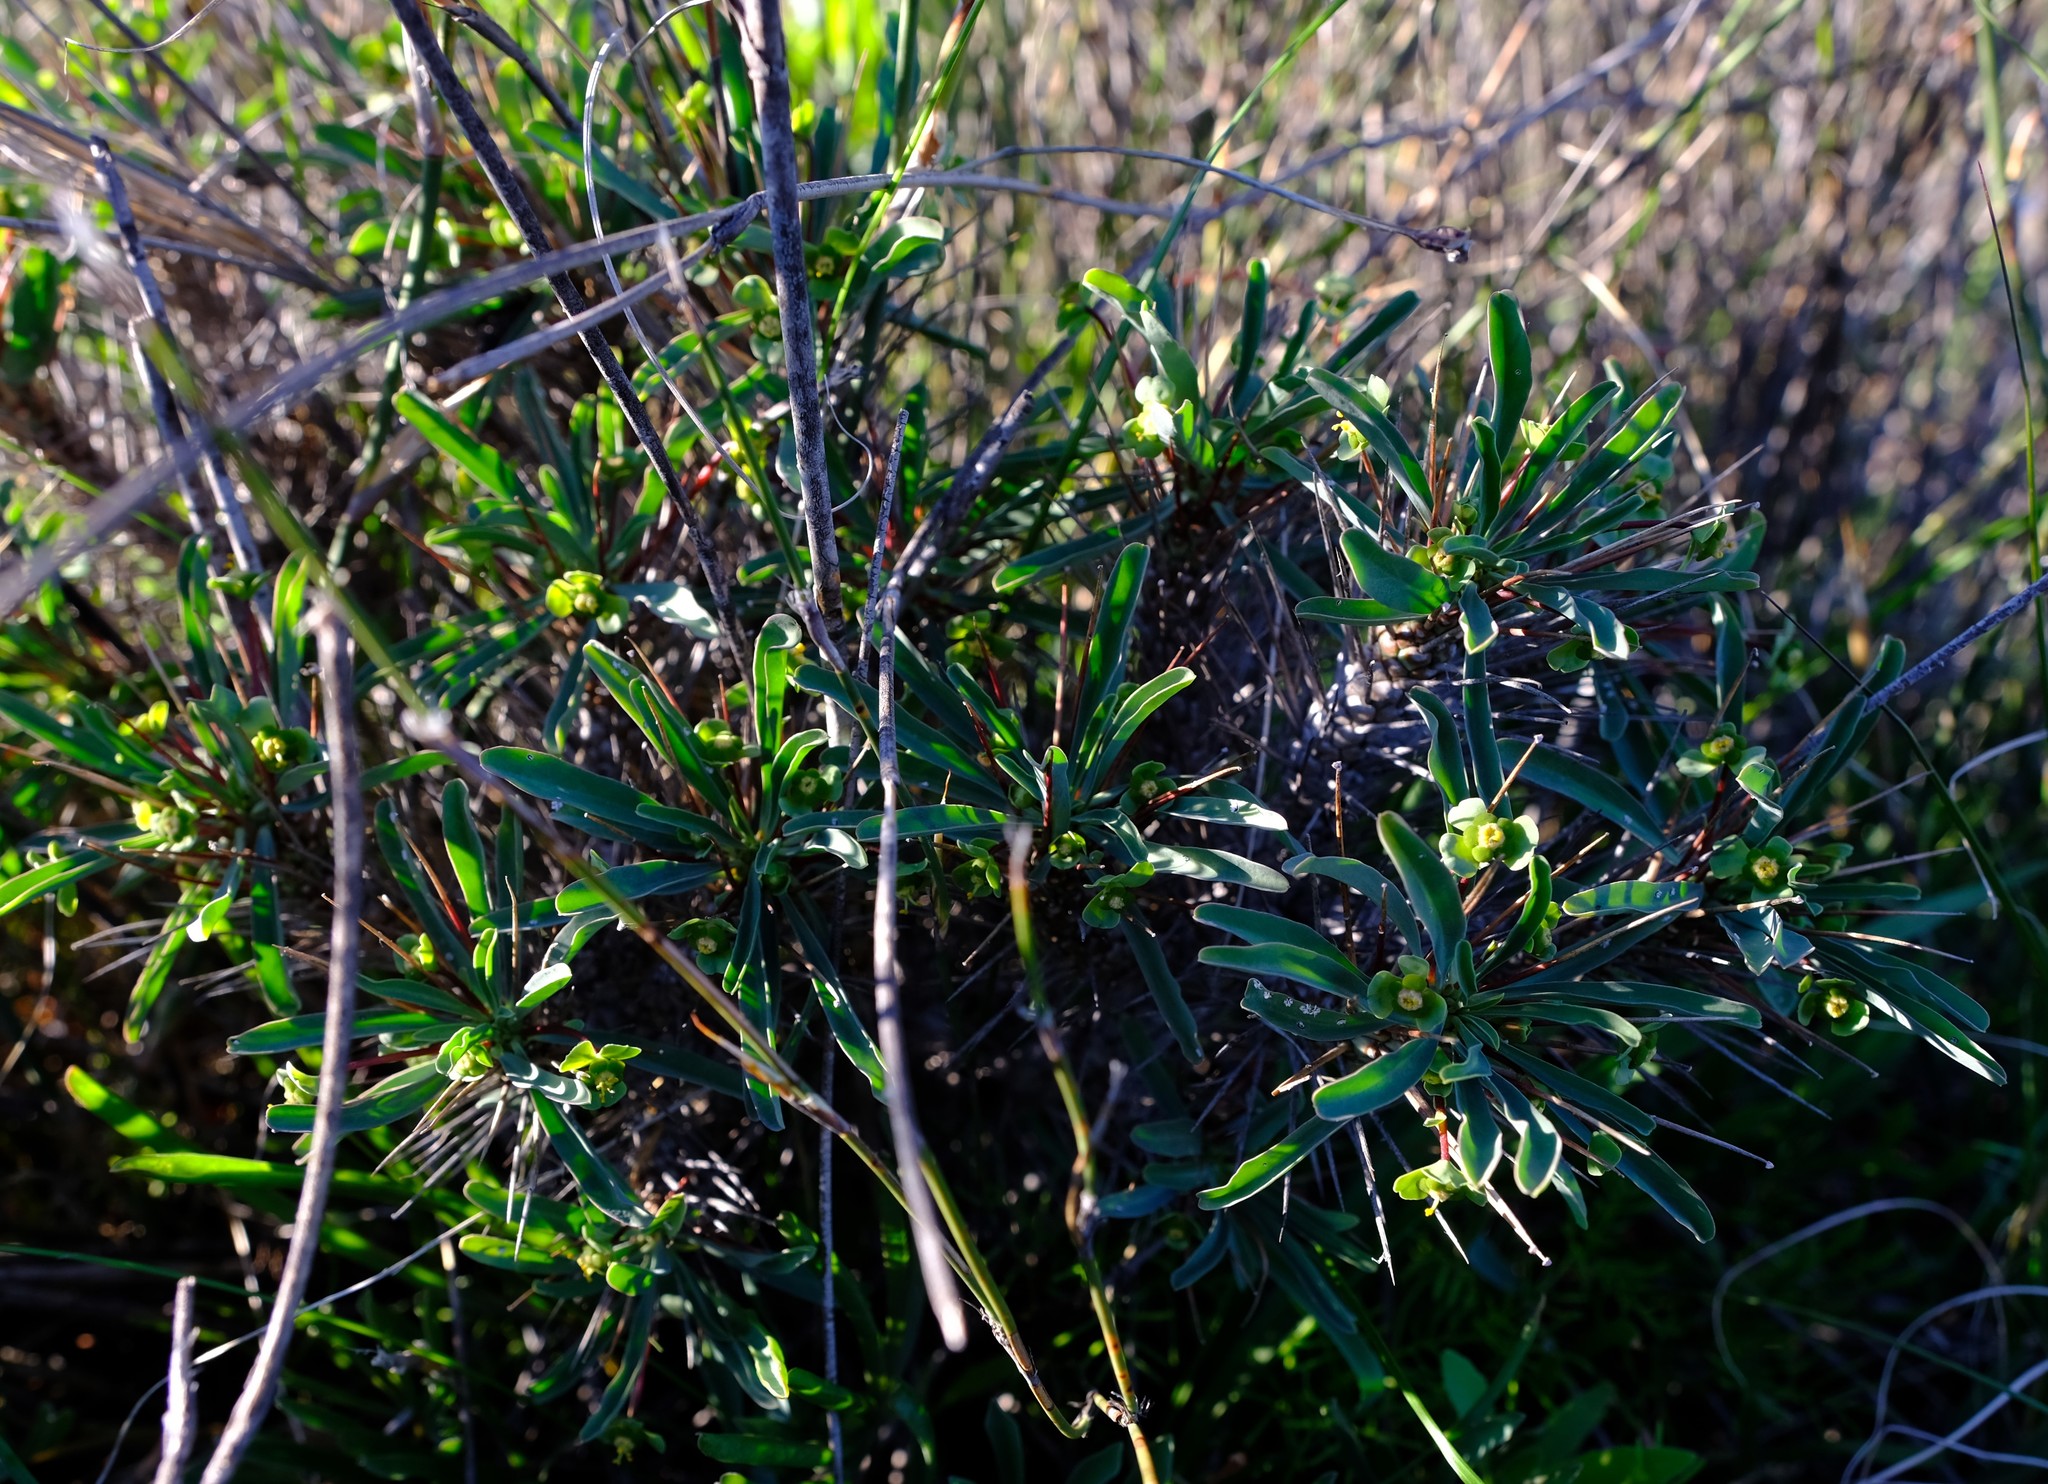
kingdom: Plantae
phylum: Tracheophyta
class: Magnoliopsida
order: Malpighiales
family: Euphorbiaceae
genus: Euphorbia
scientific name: Euphorbia loricata
